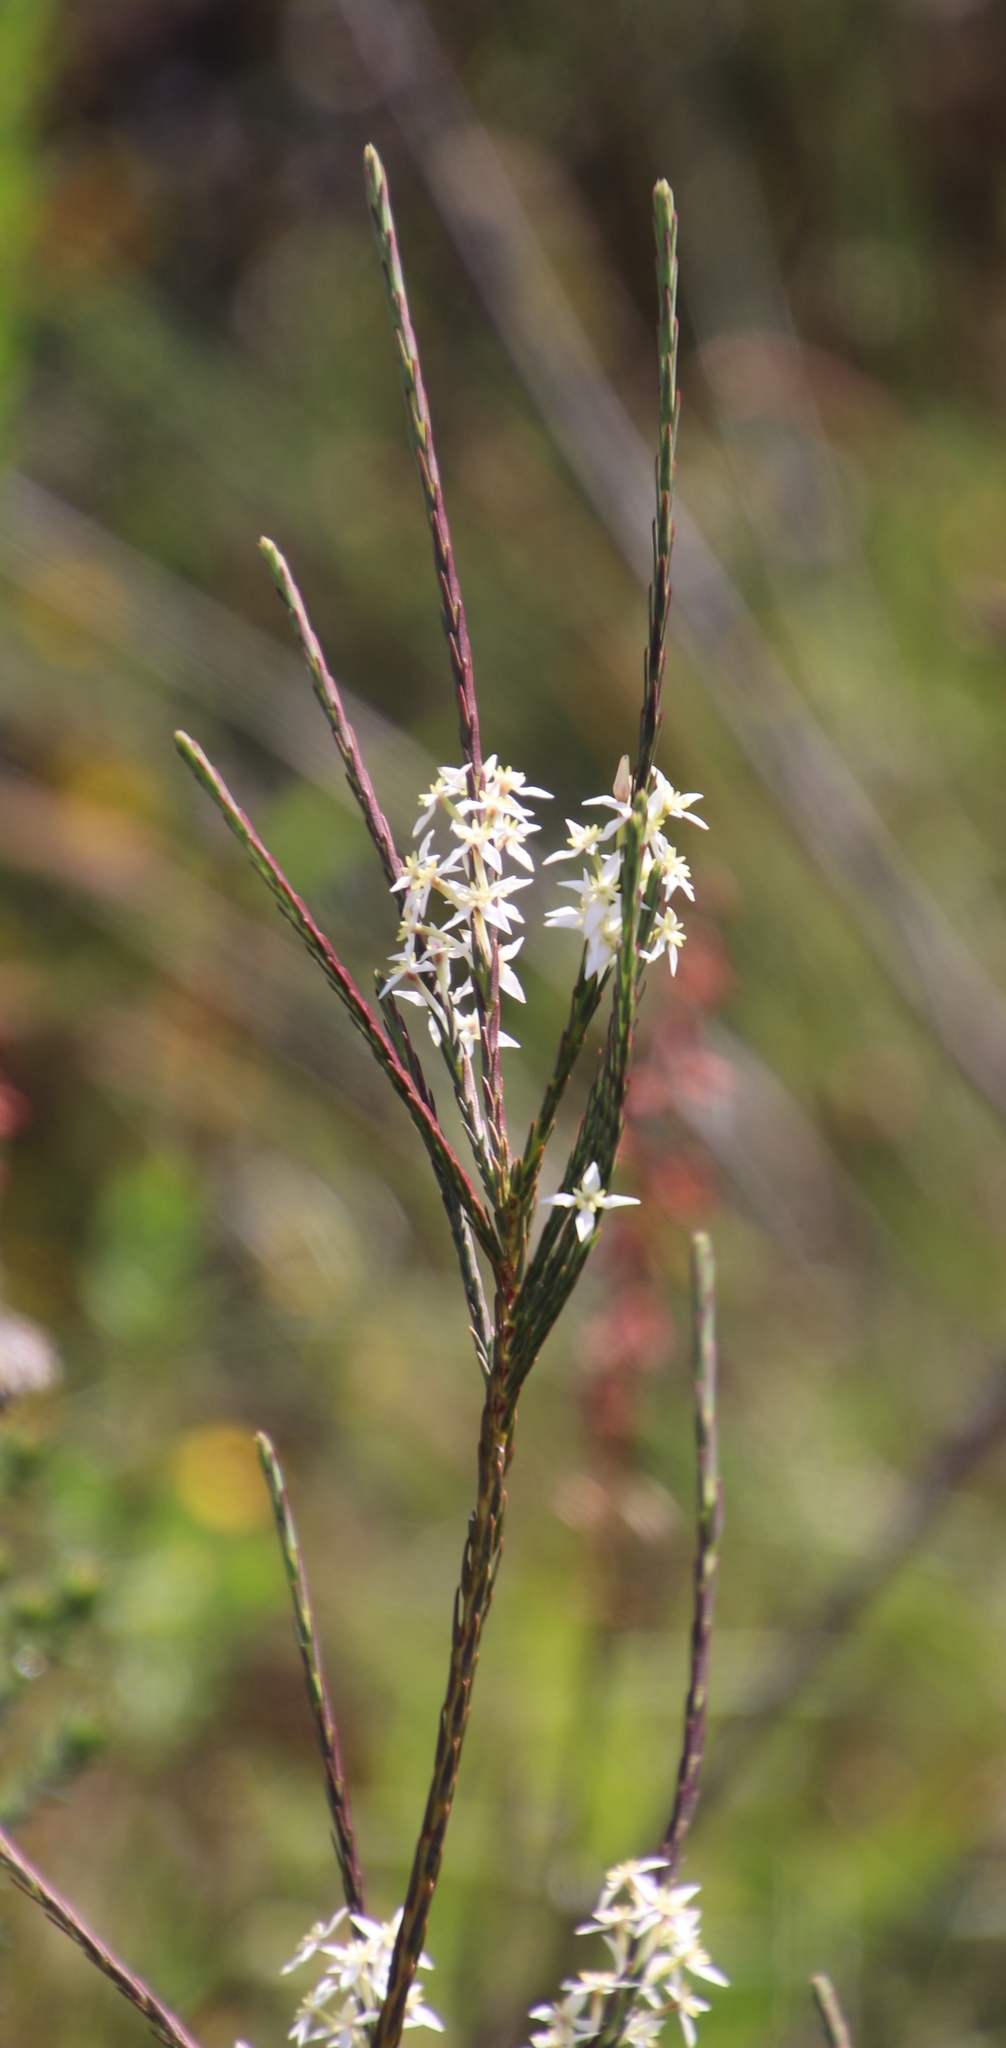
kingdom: Plantae
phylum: Tracheophyta
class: Magnoliopsida
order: Malvales
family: Thymelaeaceae
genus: Struthiola
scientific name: Struthiola dodecandra
